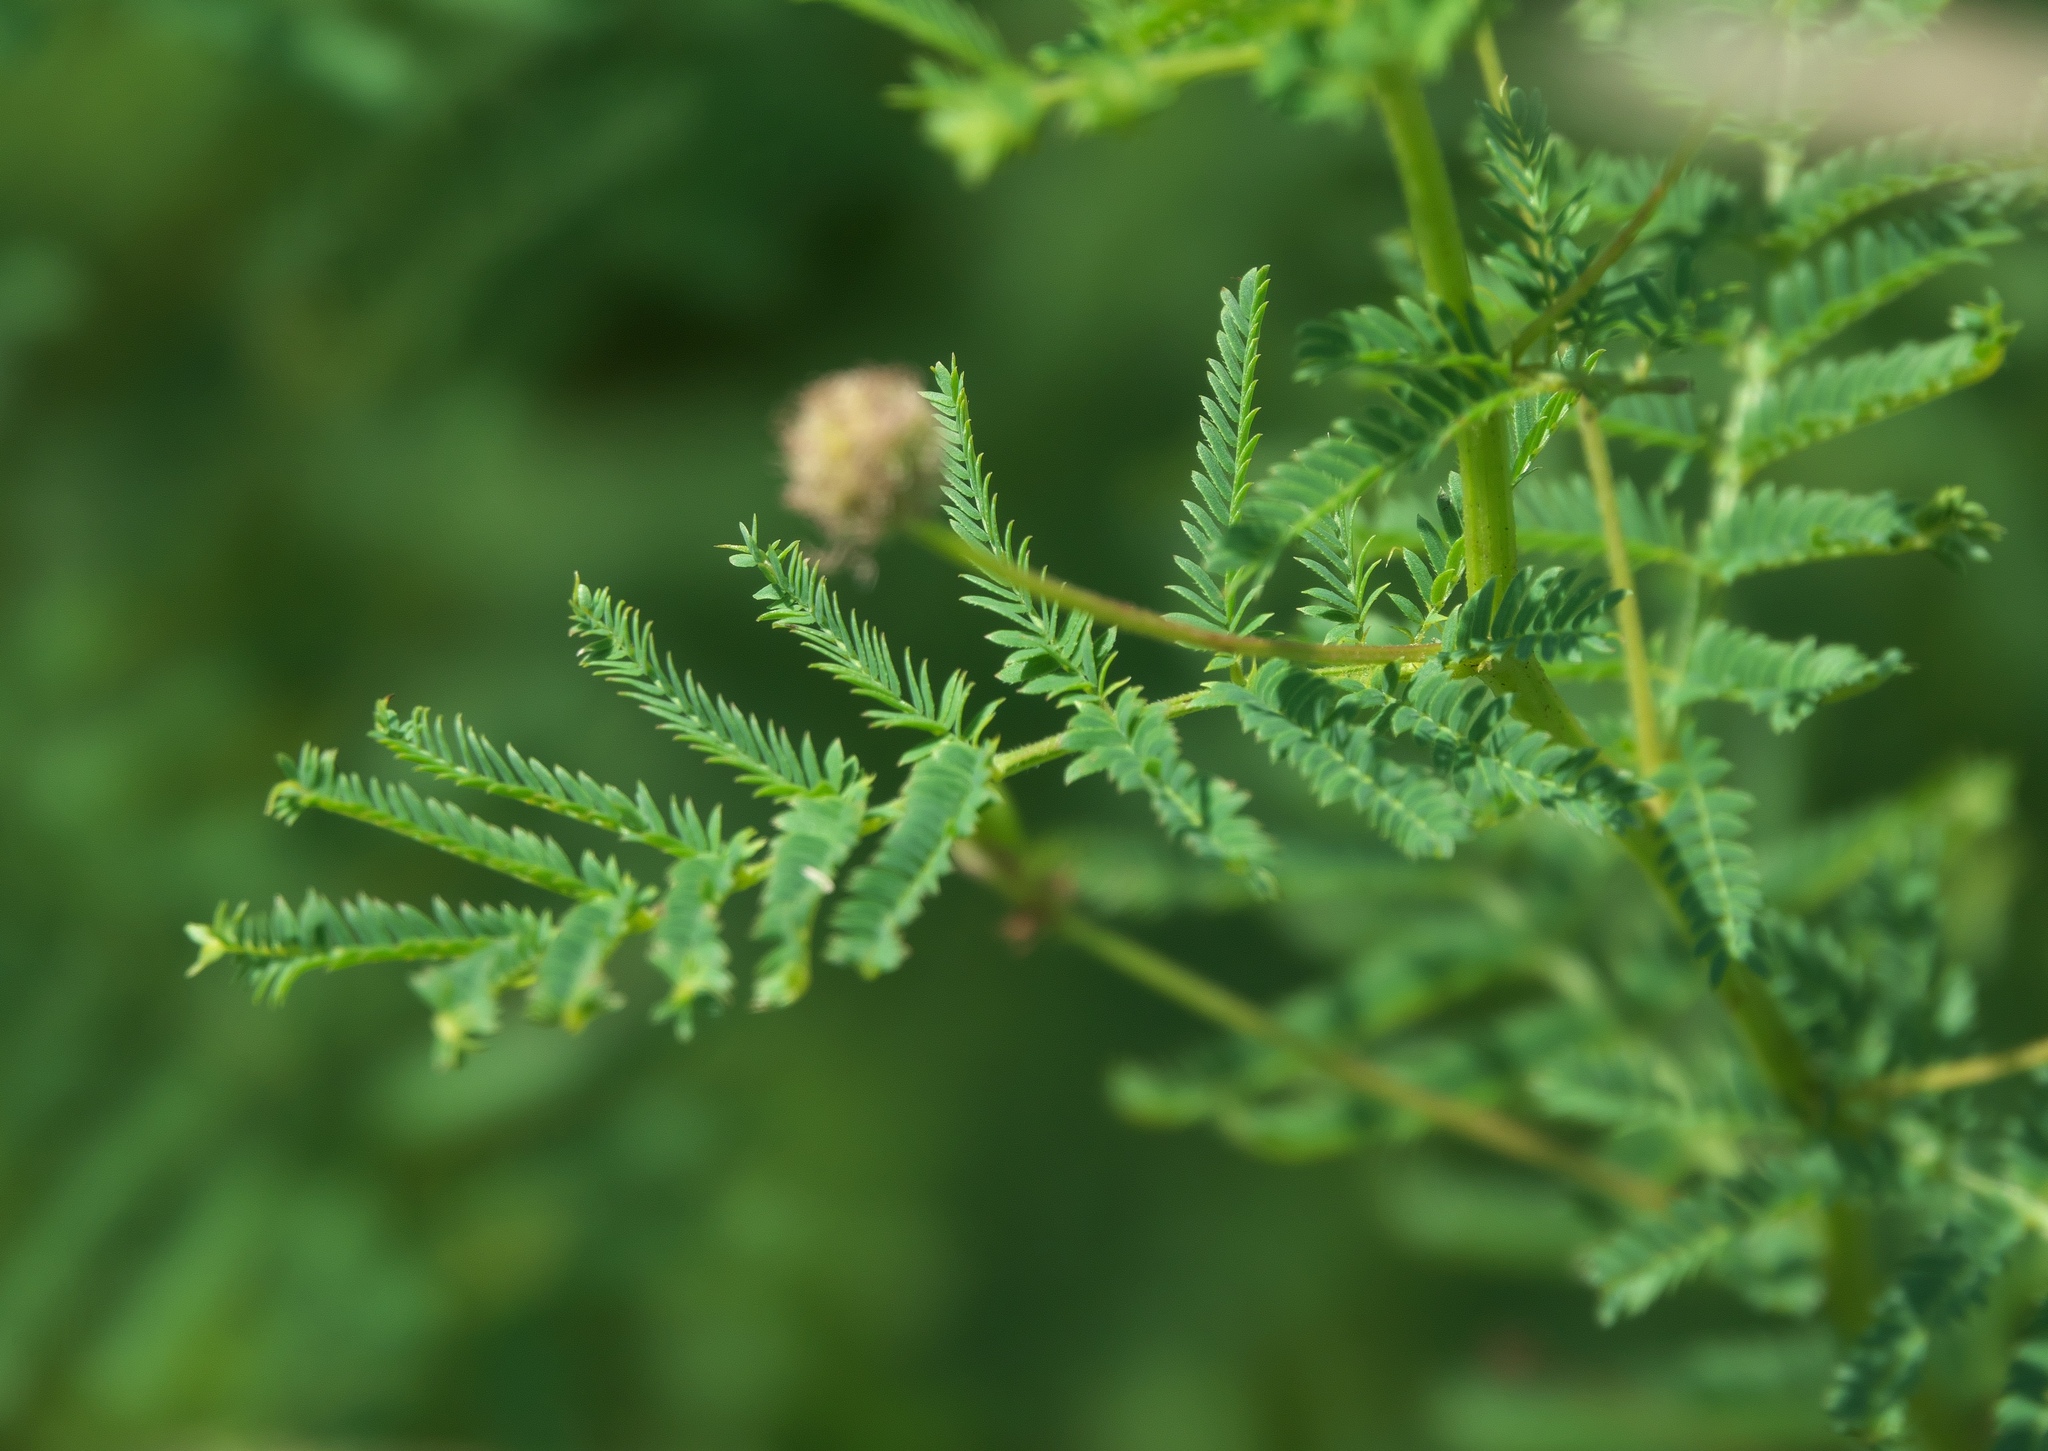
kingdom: Plantae
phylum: Tracheophyta
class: Magnoliopsida
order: Fabales
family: Fabaceae
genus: Desmanthus
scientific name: Desmanthus illinoensis
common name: Illinois bundle-flower
